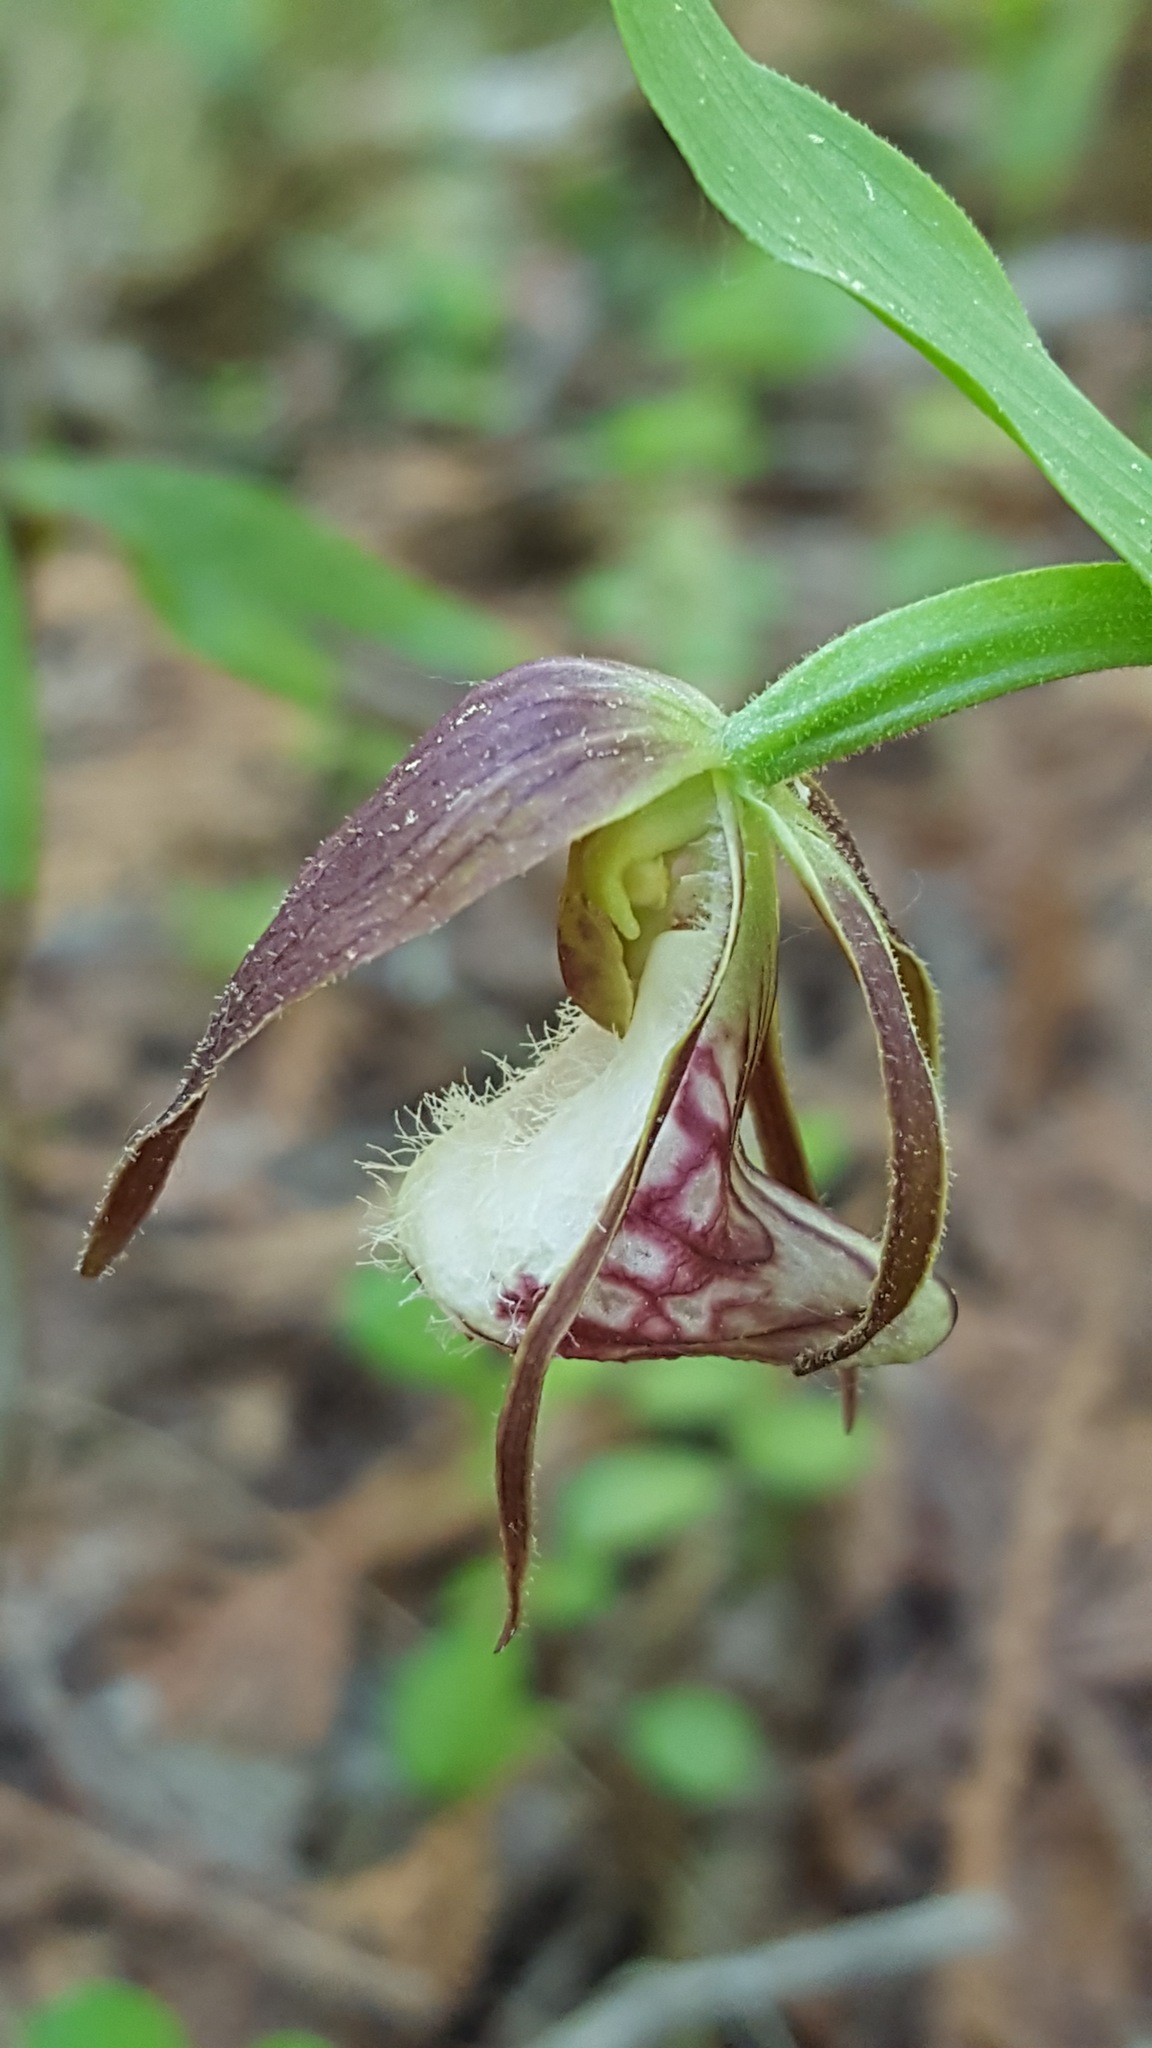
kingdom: Plantae
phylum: Tracheophyta
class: Liliopsida
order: Asparagales
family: Orchidaceae
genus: Cypripedium
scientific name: Cypripedium arietinum
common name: Ram's-head
